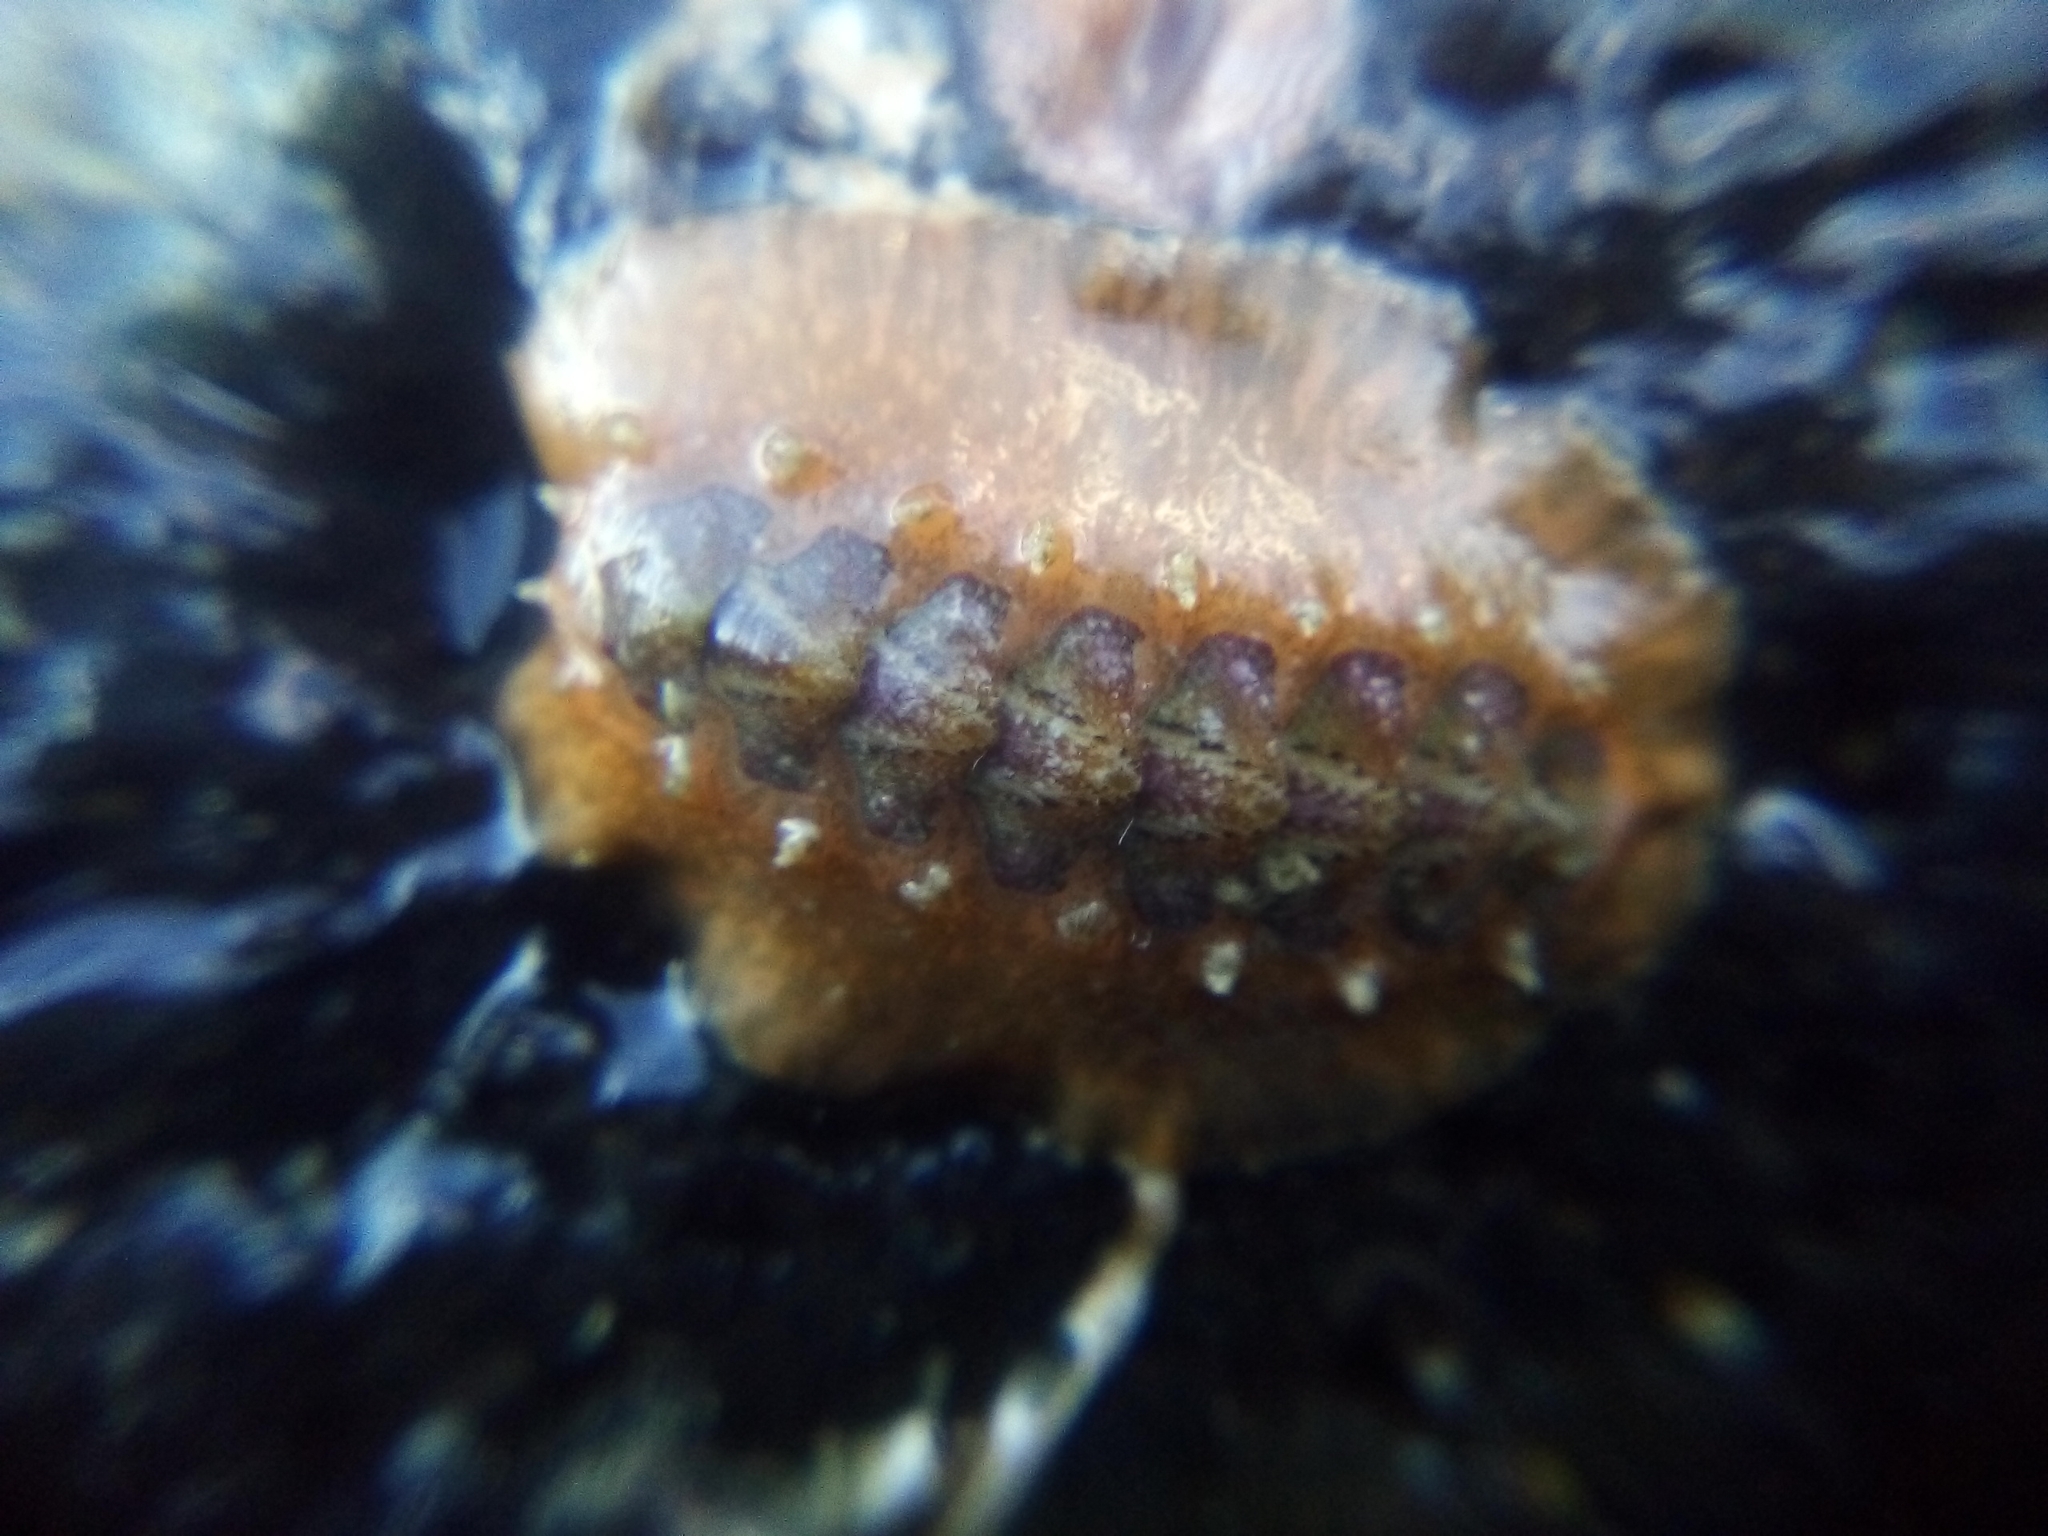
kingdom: Animalia
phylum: Mollusca
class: Polyplacophora
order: Chitonida
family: Acanthochitonidae
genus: Notoplax
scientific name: Notoplax violacea
